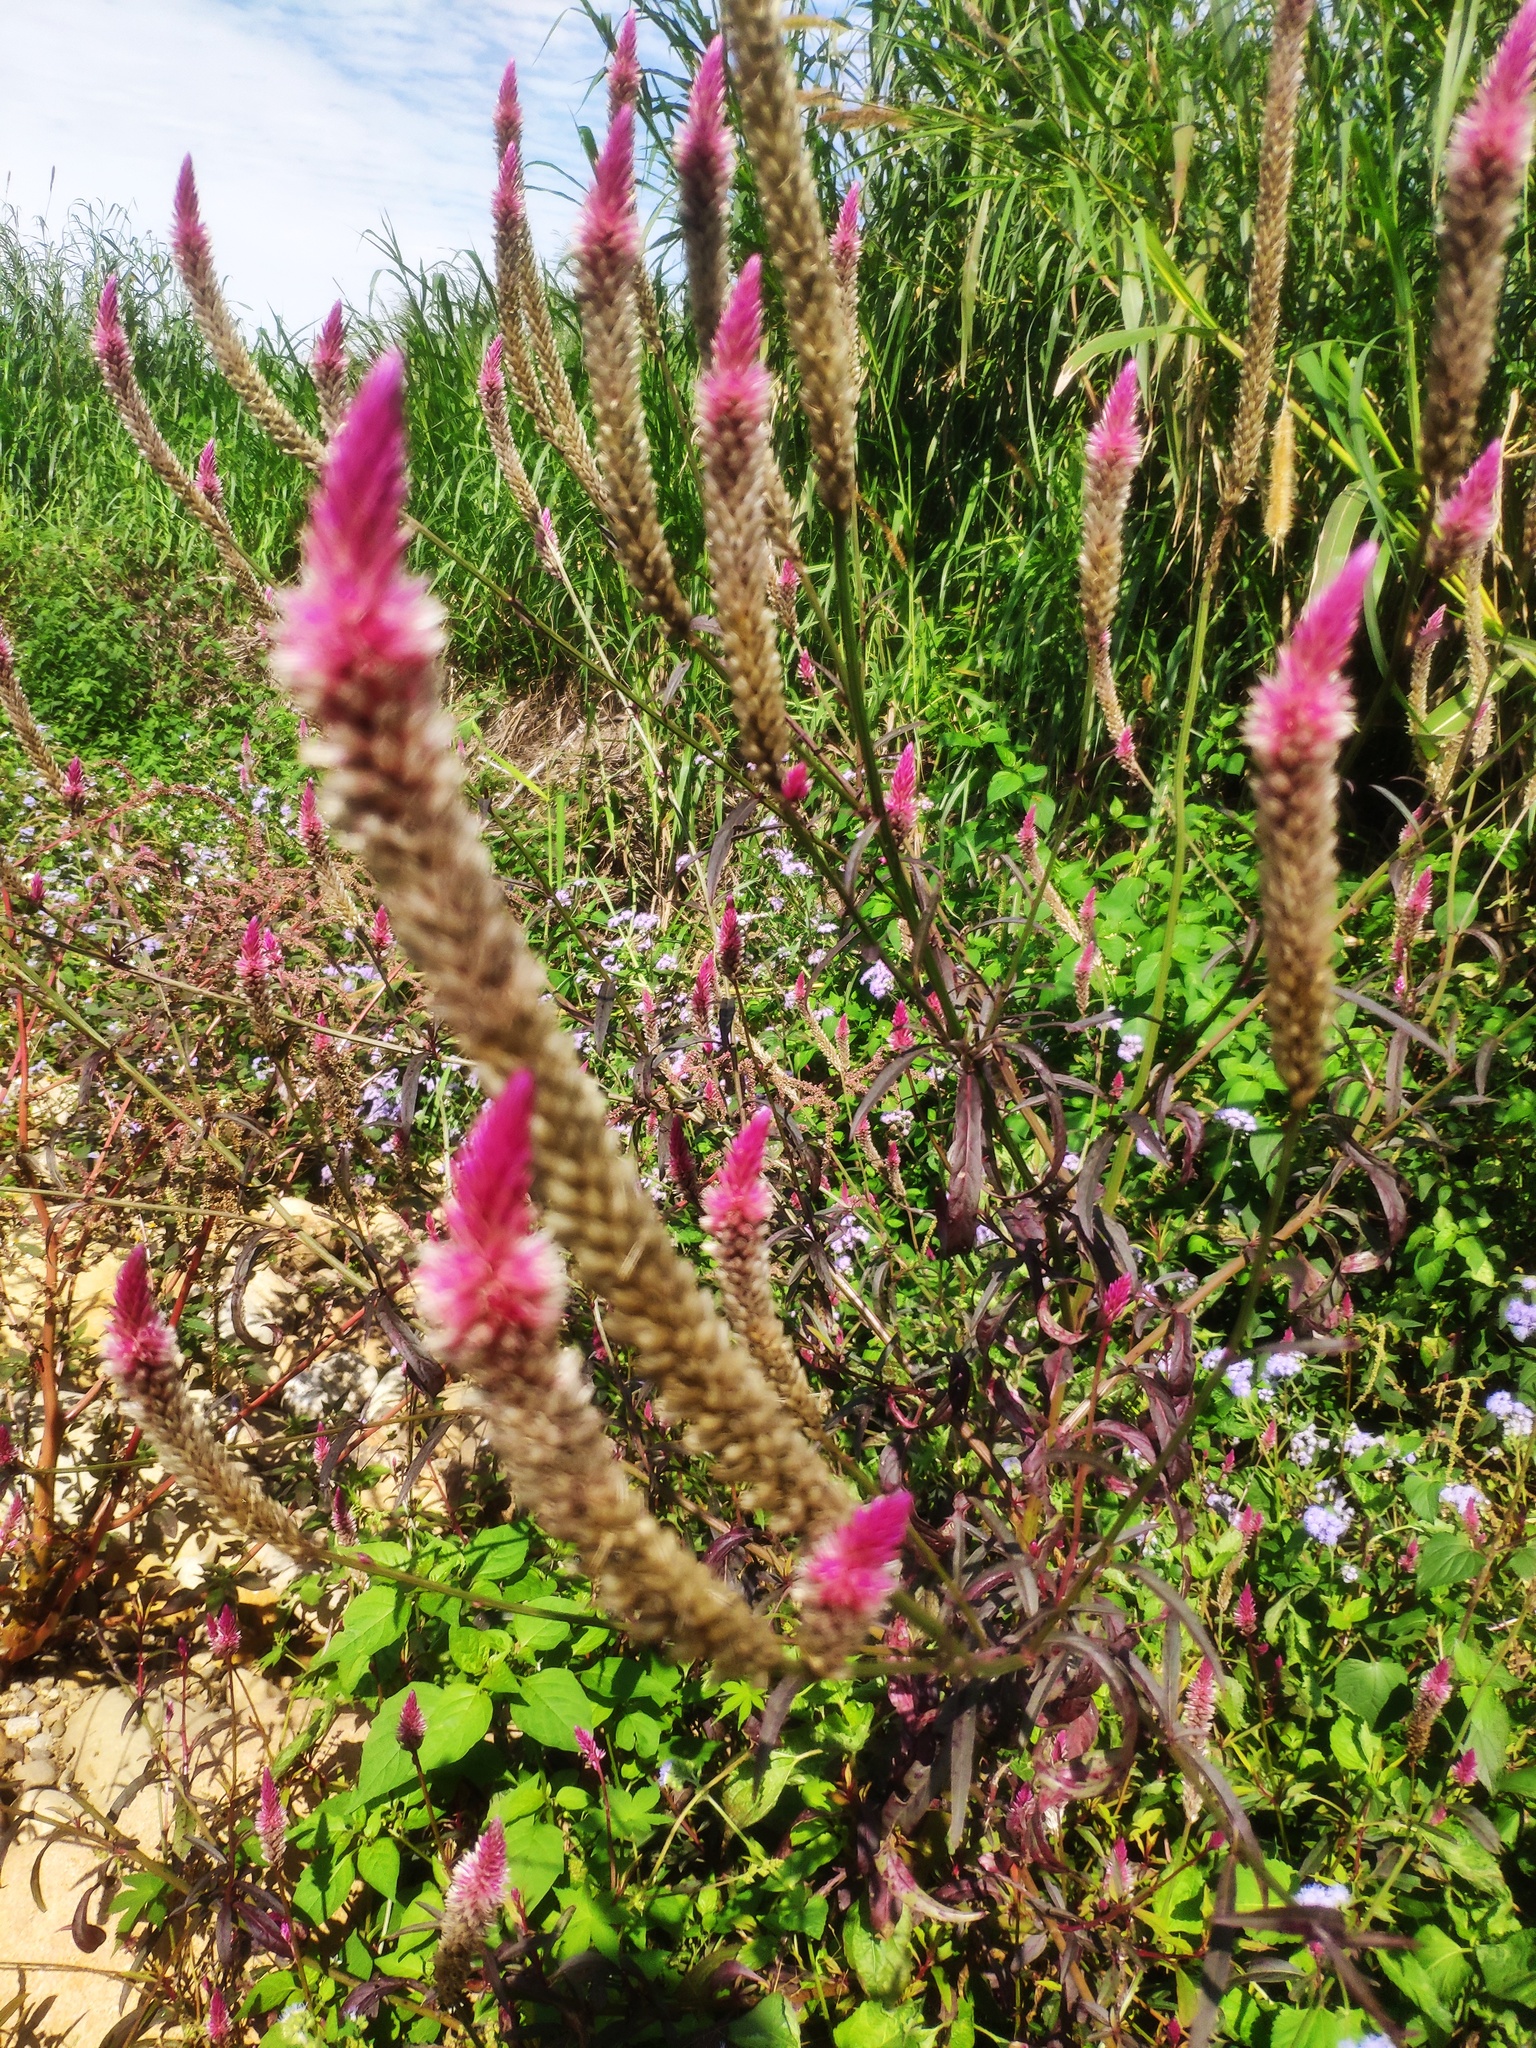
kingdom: Plantae
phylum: Tracheophyta
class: Magnoliopsida
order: Caryophyllales
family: Amaranthaceae
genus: Celosia
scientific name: Celosia argentea
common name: Feather cockscomb
